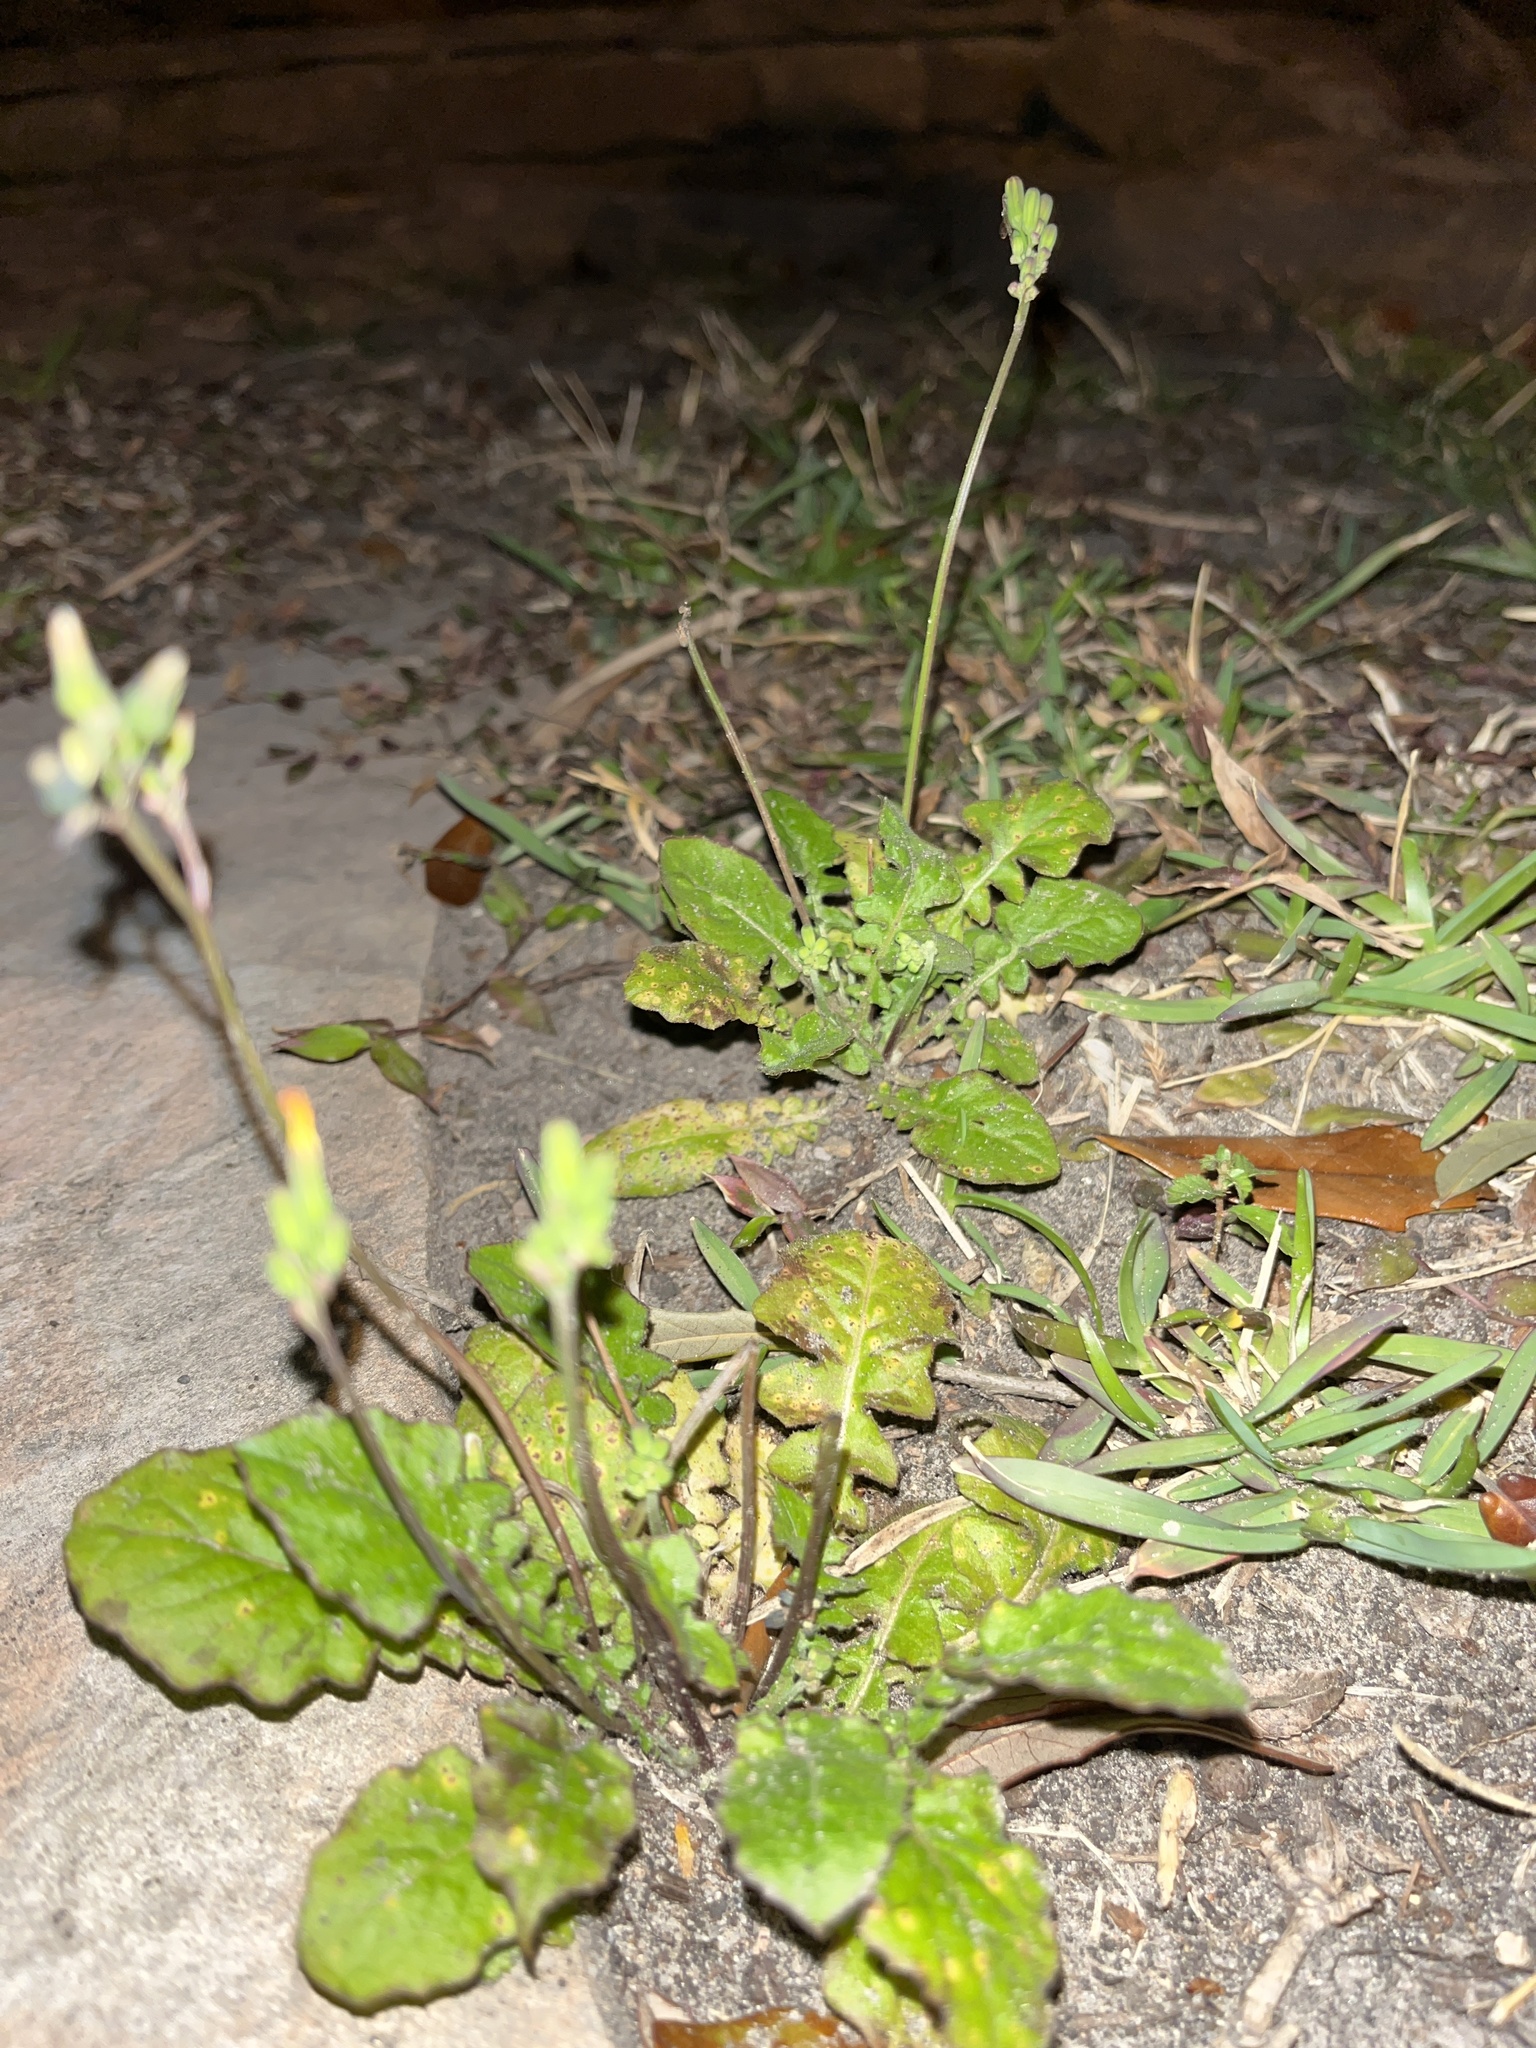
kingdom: Plantae
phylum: Tracheophyta
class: Magnoliopsida
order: Asterales
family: Asteraceae
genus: Youngia
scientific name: Youngia japonica
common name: Oriental false hawksbeard
